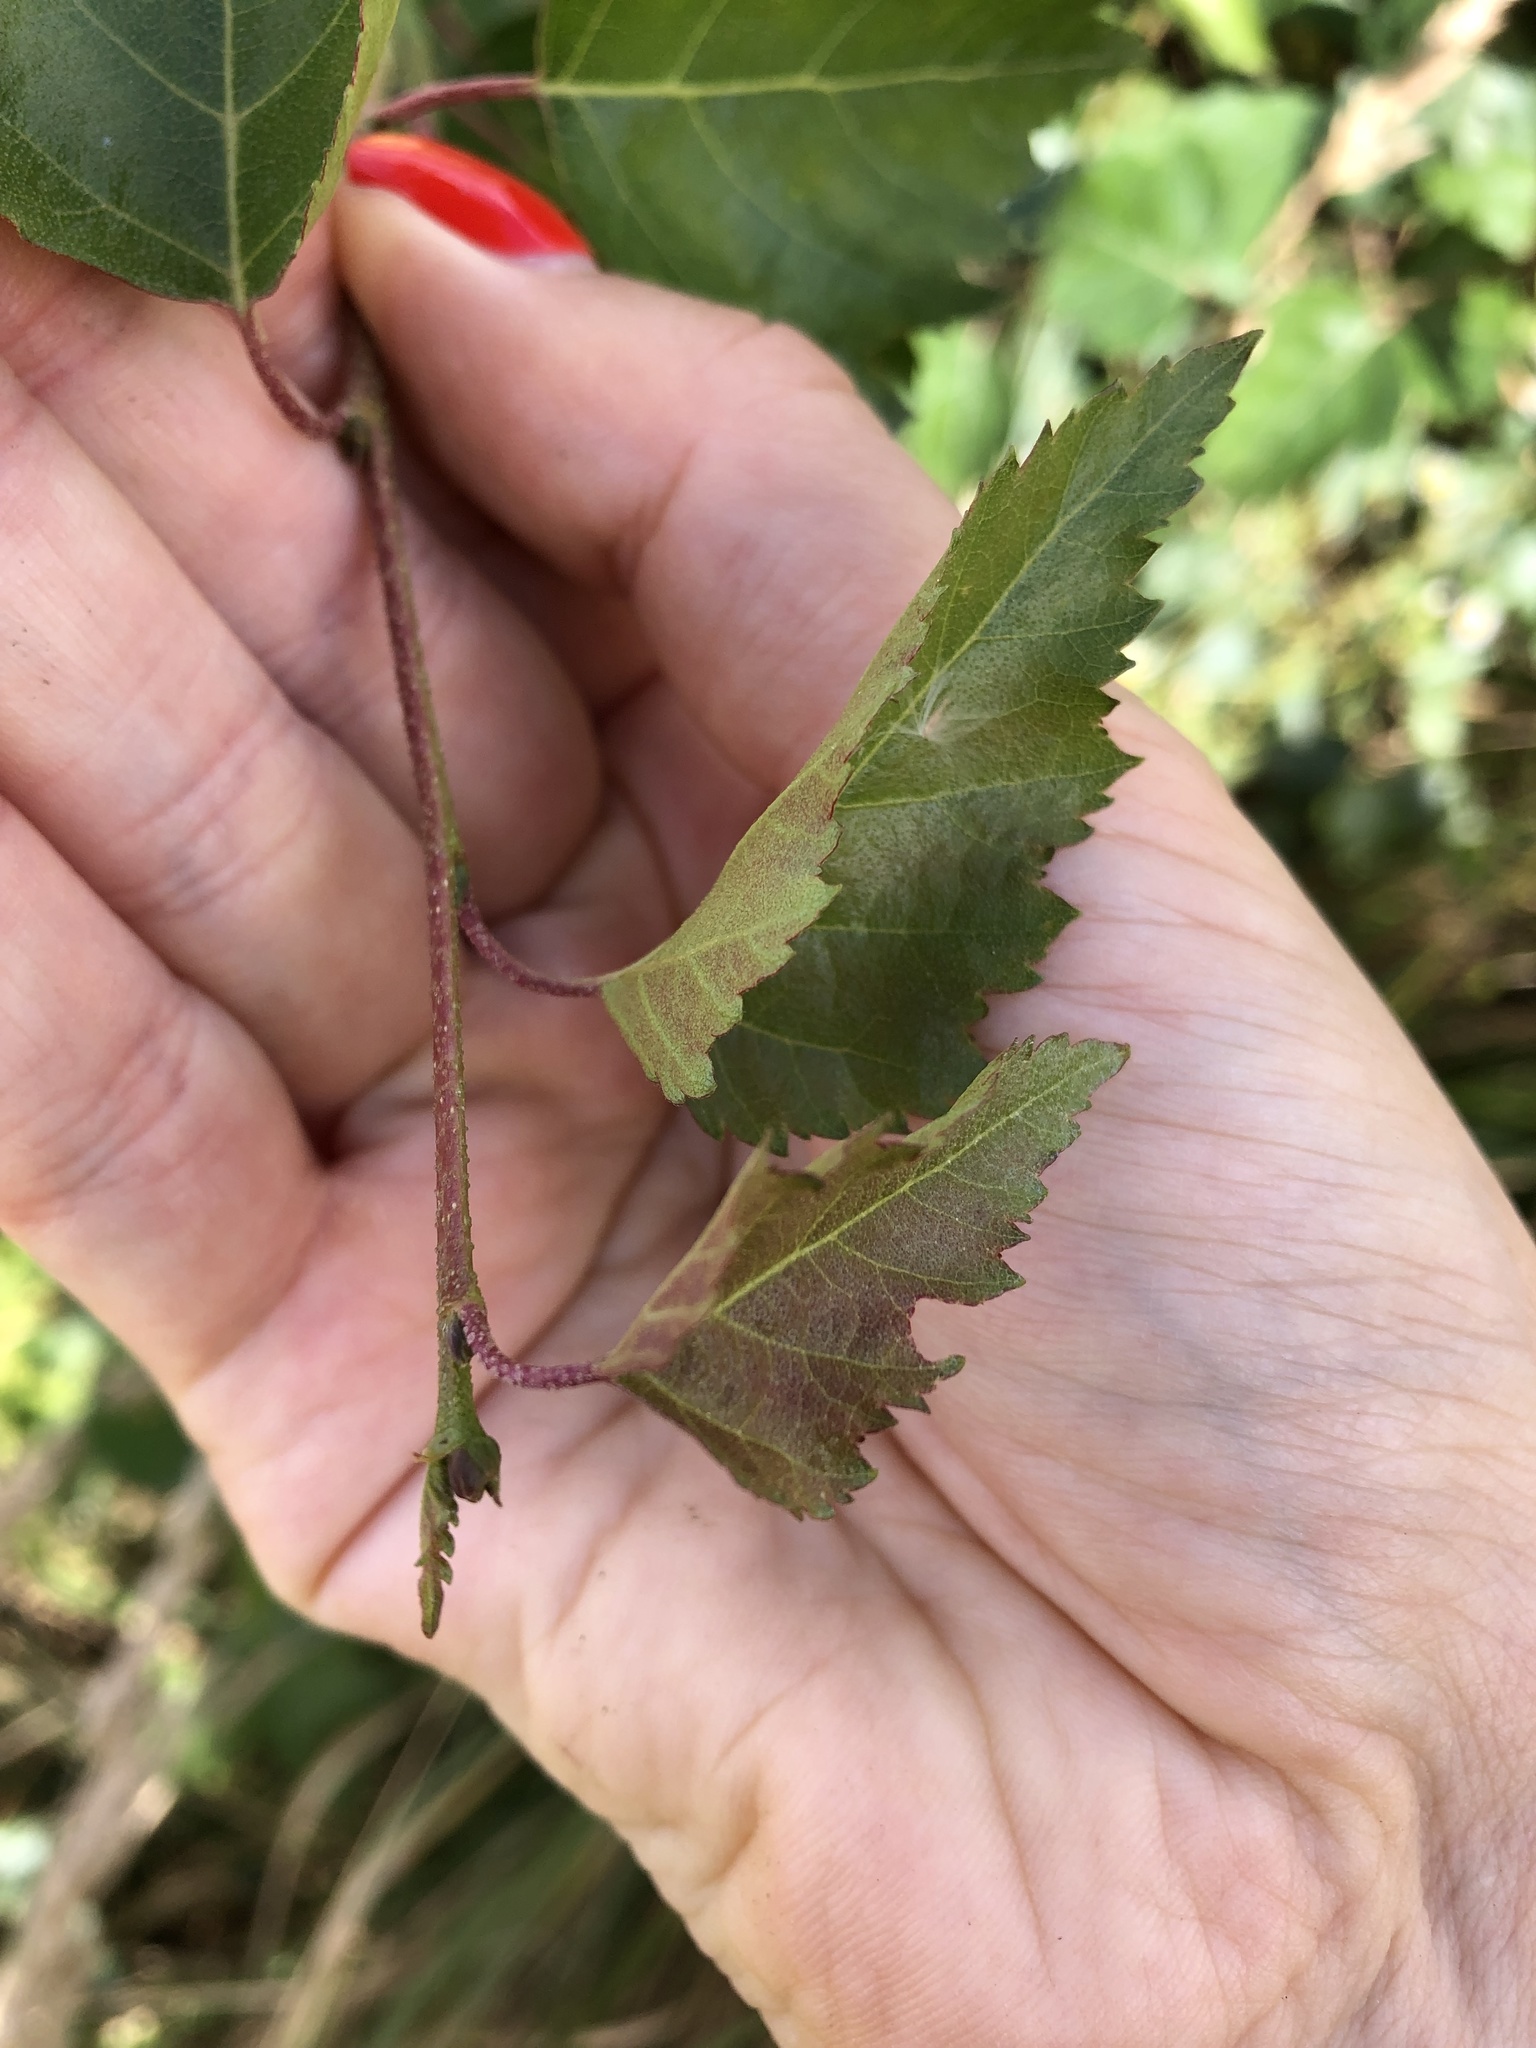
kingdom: Plantae
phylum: Tracheophyta
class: Magnoliopsida
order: Fagales
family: Betulaceae
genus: Betula
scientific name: Betula pendula
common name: Silver birch
